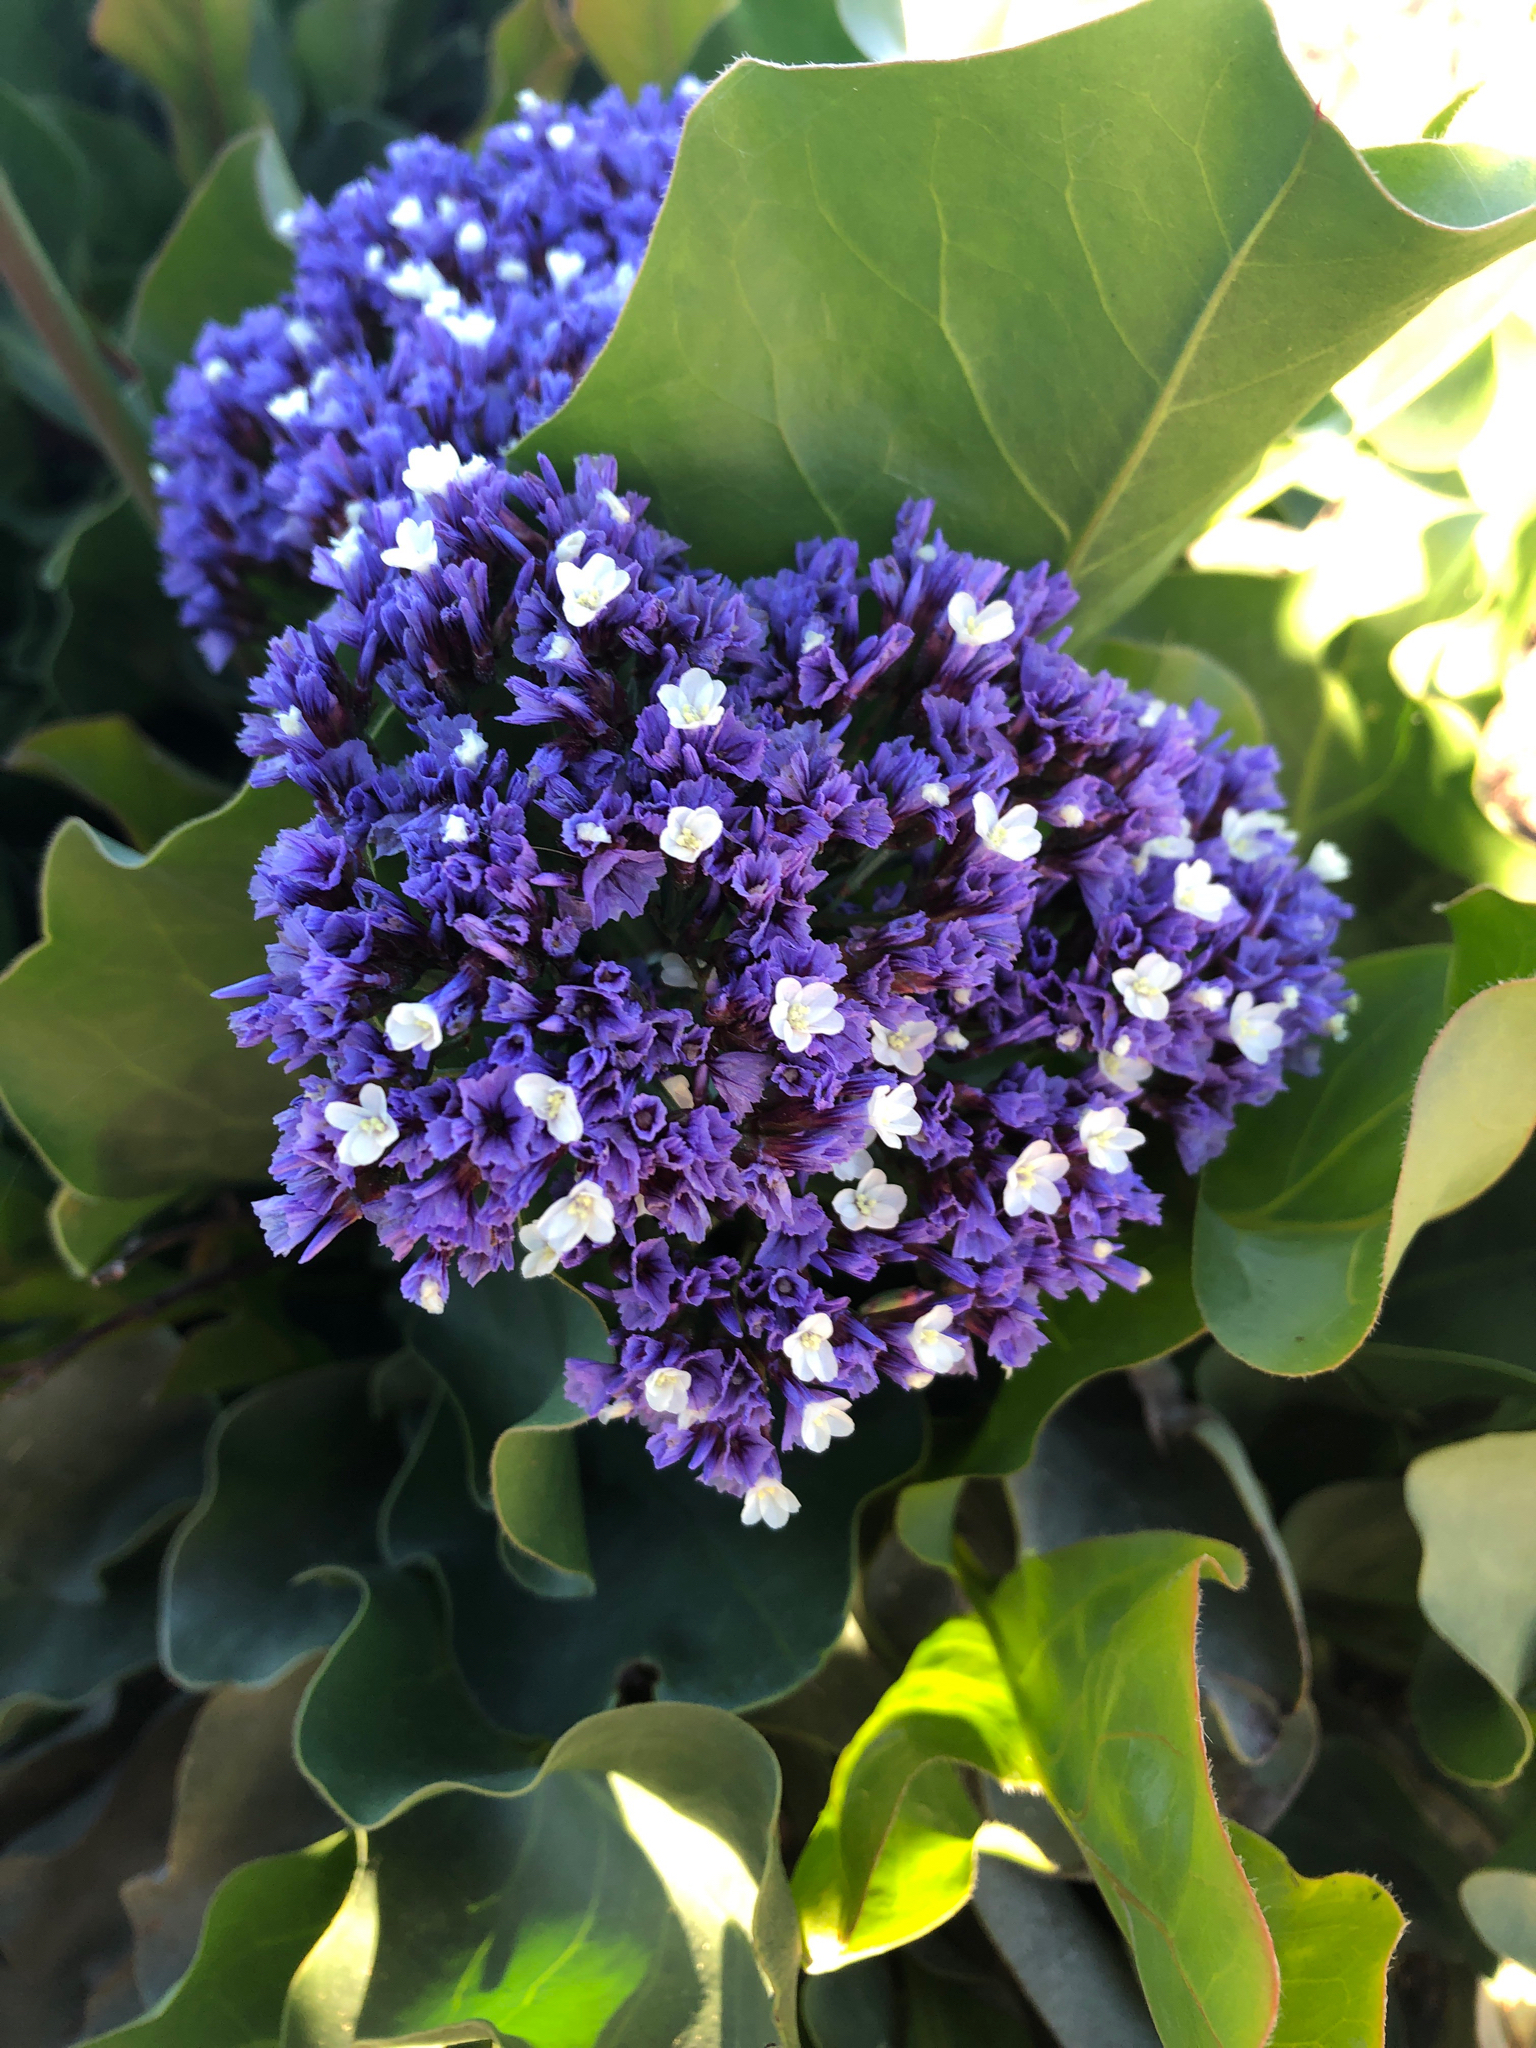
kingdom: Plantae
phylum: Tracheophyta
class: Magnoliopsida
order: Caryophyllales
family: Plumbaginaceae
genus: Limonium
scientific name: Limonium perezii
